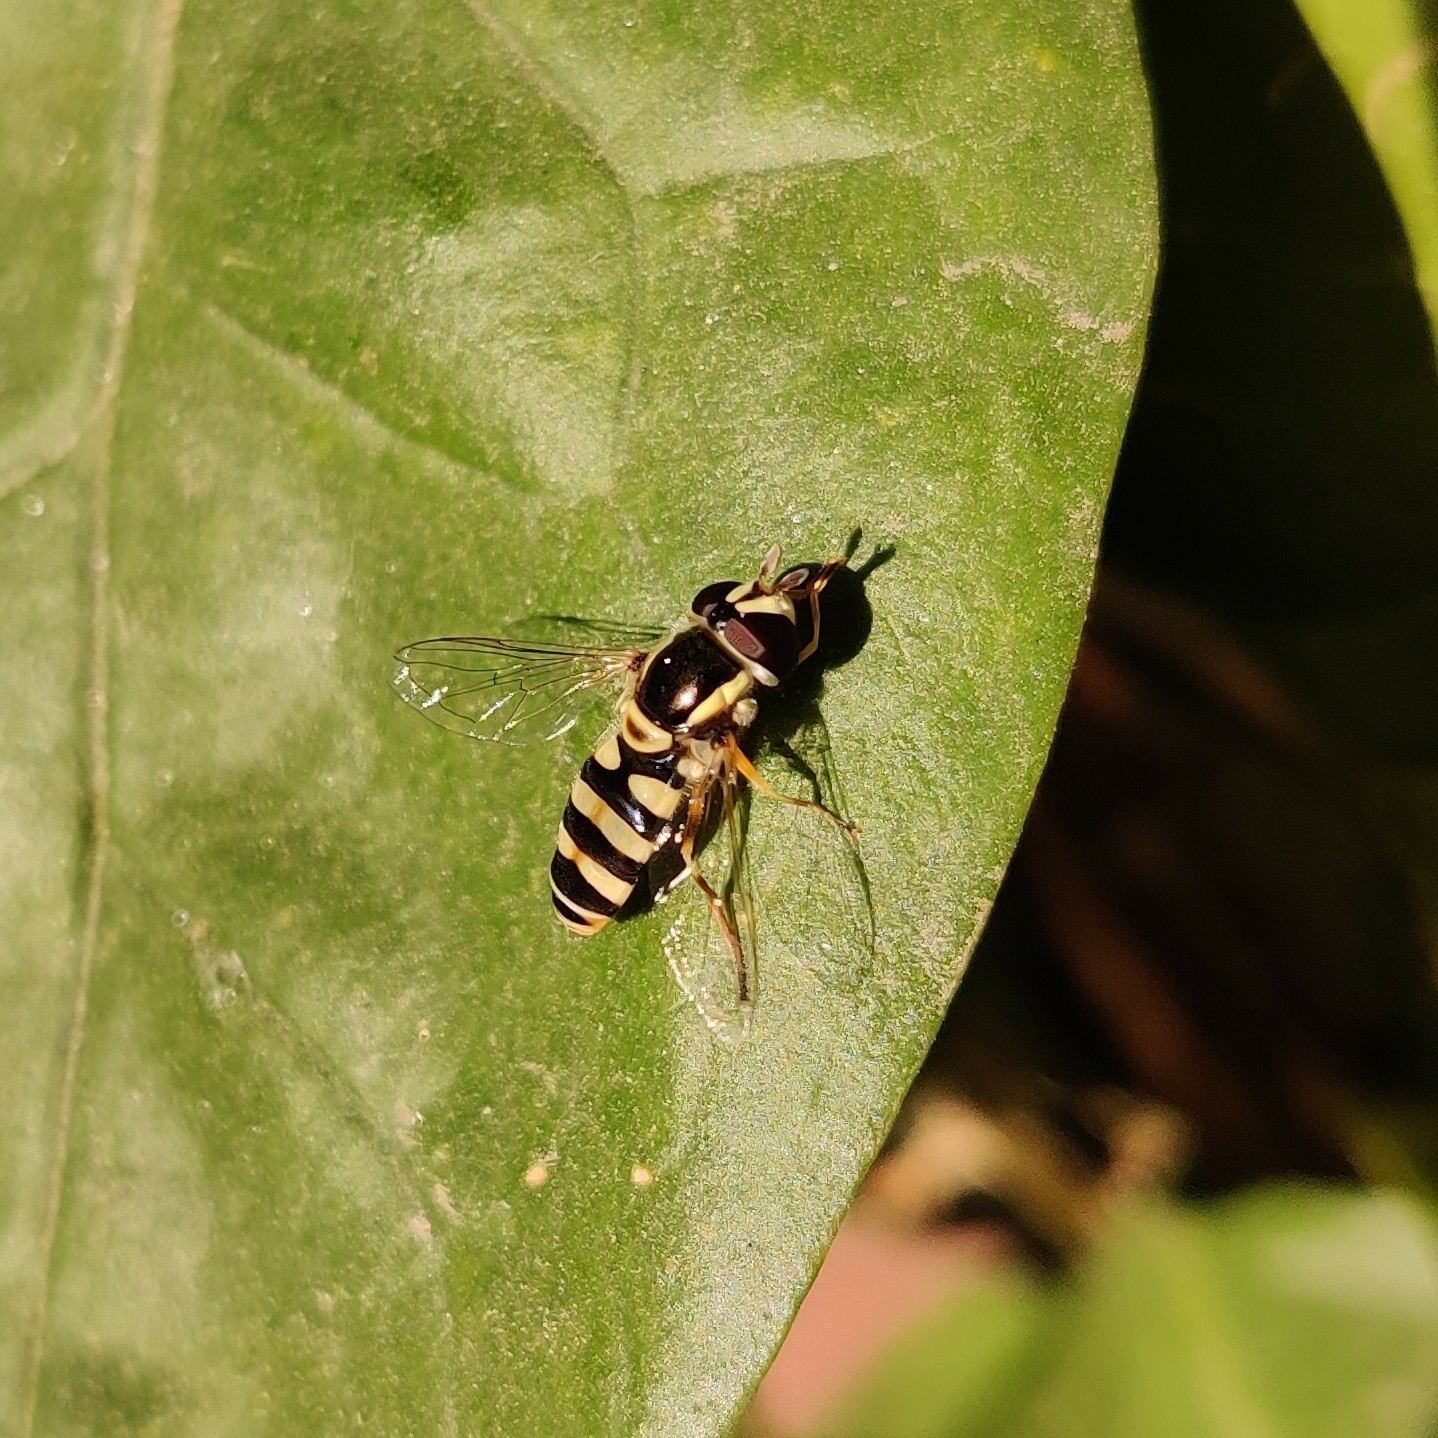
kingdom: Animalia
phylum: Arthropoda
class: Insecta
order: Diptera
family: Syrphidae
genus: Ischiodon
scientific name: Ischiodon scutellaris
